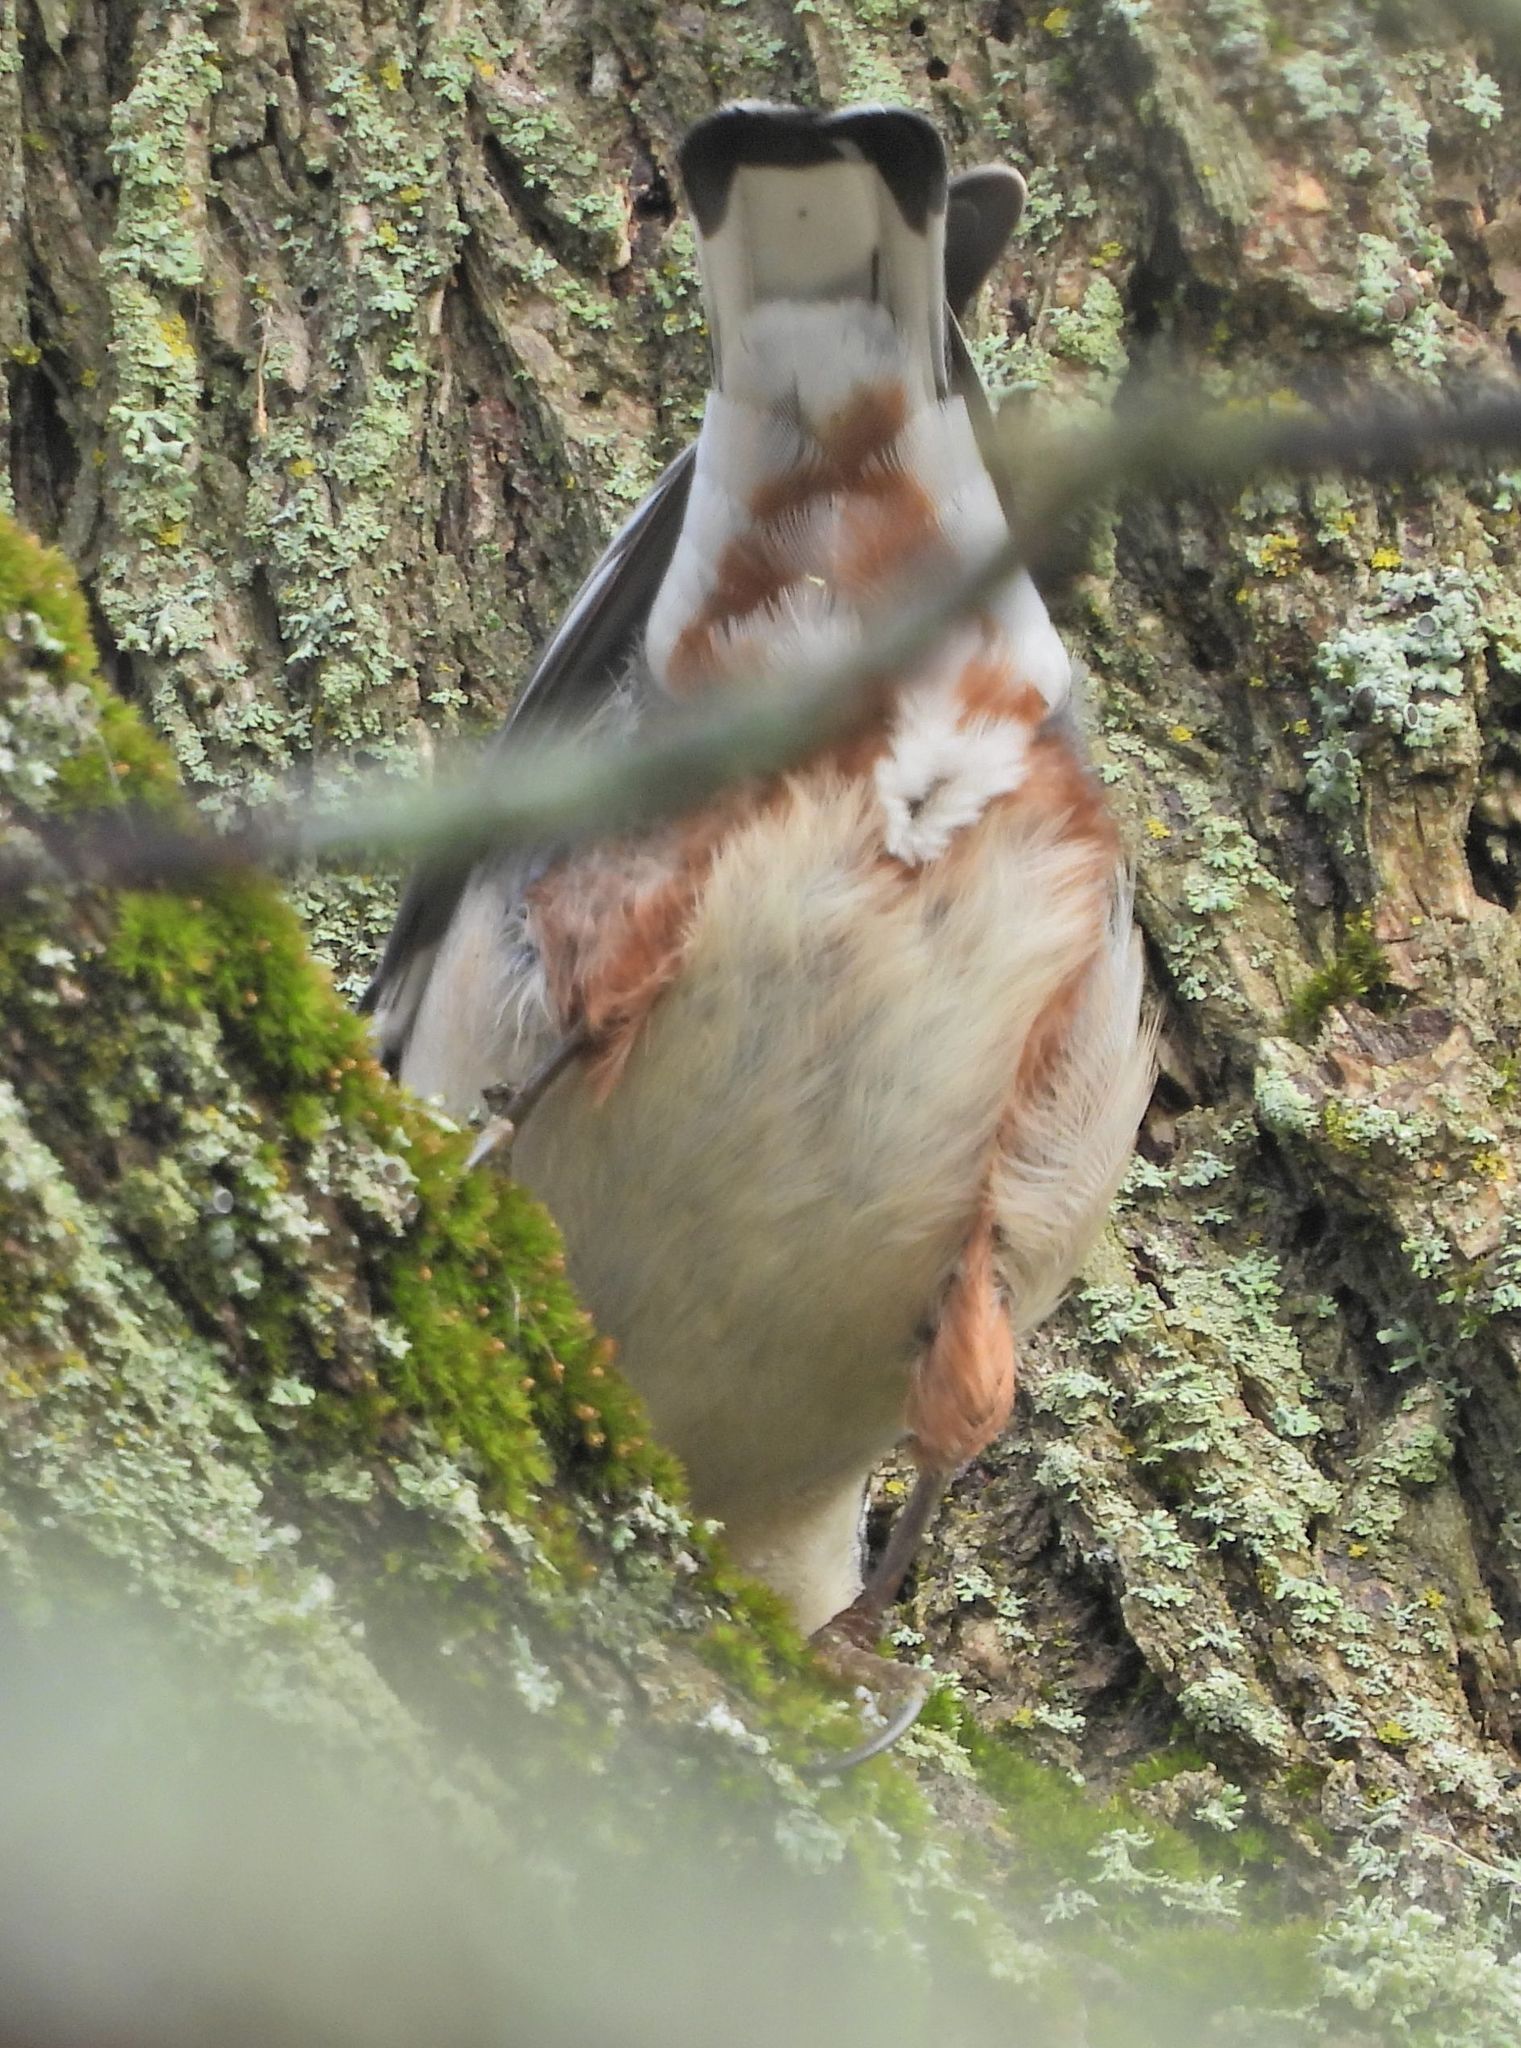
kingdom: Animalia
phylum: Chordata
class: Aves
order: Passeriformes
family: Sittidae
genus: Sitta
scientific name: Sitta carolinensis
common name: White-breasted nuthatch
